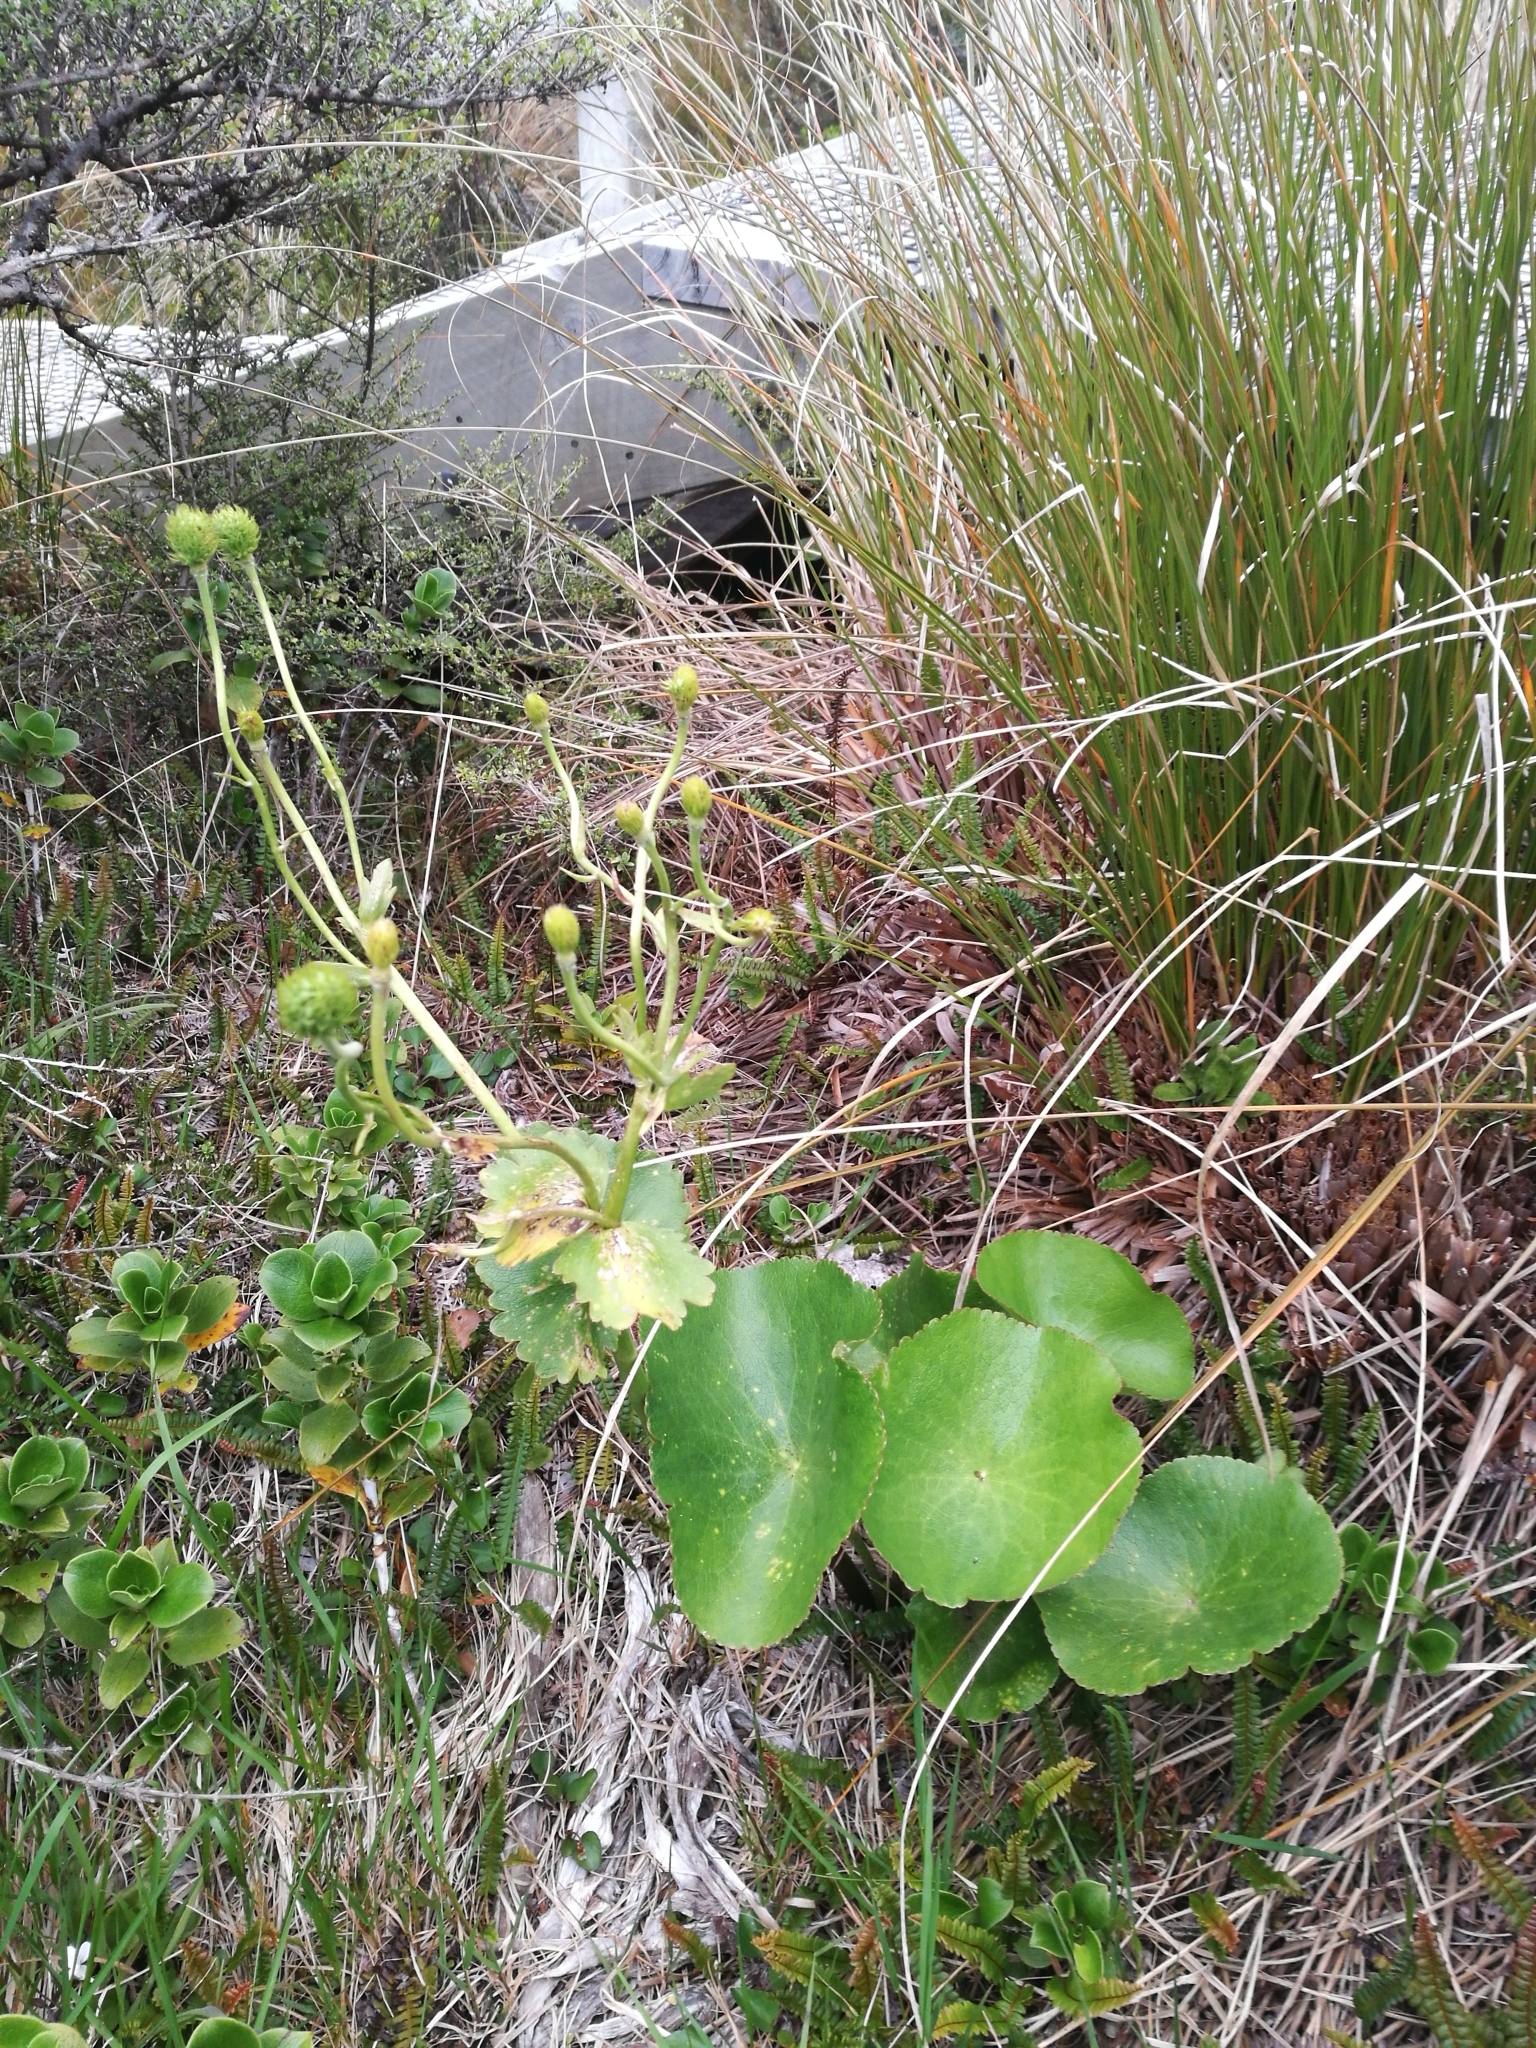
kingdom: Plantae
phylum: Tracheophyta
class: Magnoliopsida
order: Ranunculales
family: Ranunculaceae
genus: Ranunculus
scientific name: Ranunculus lyallii
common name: Mountain-lily
